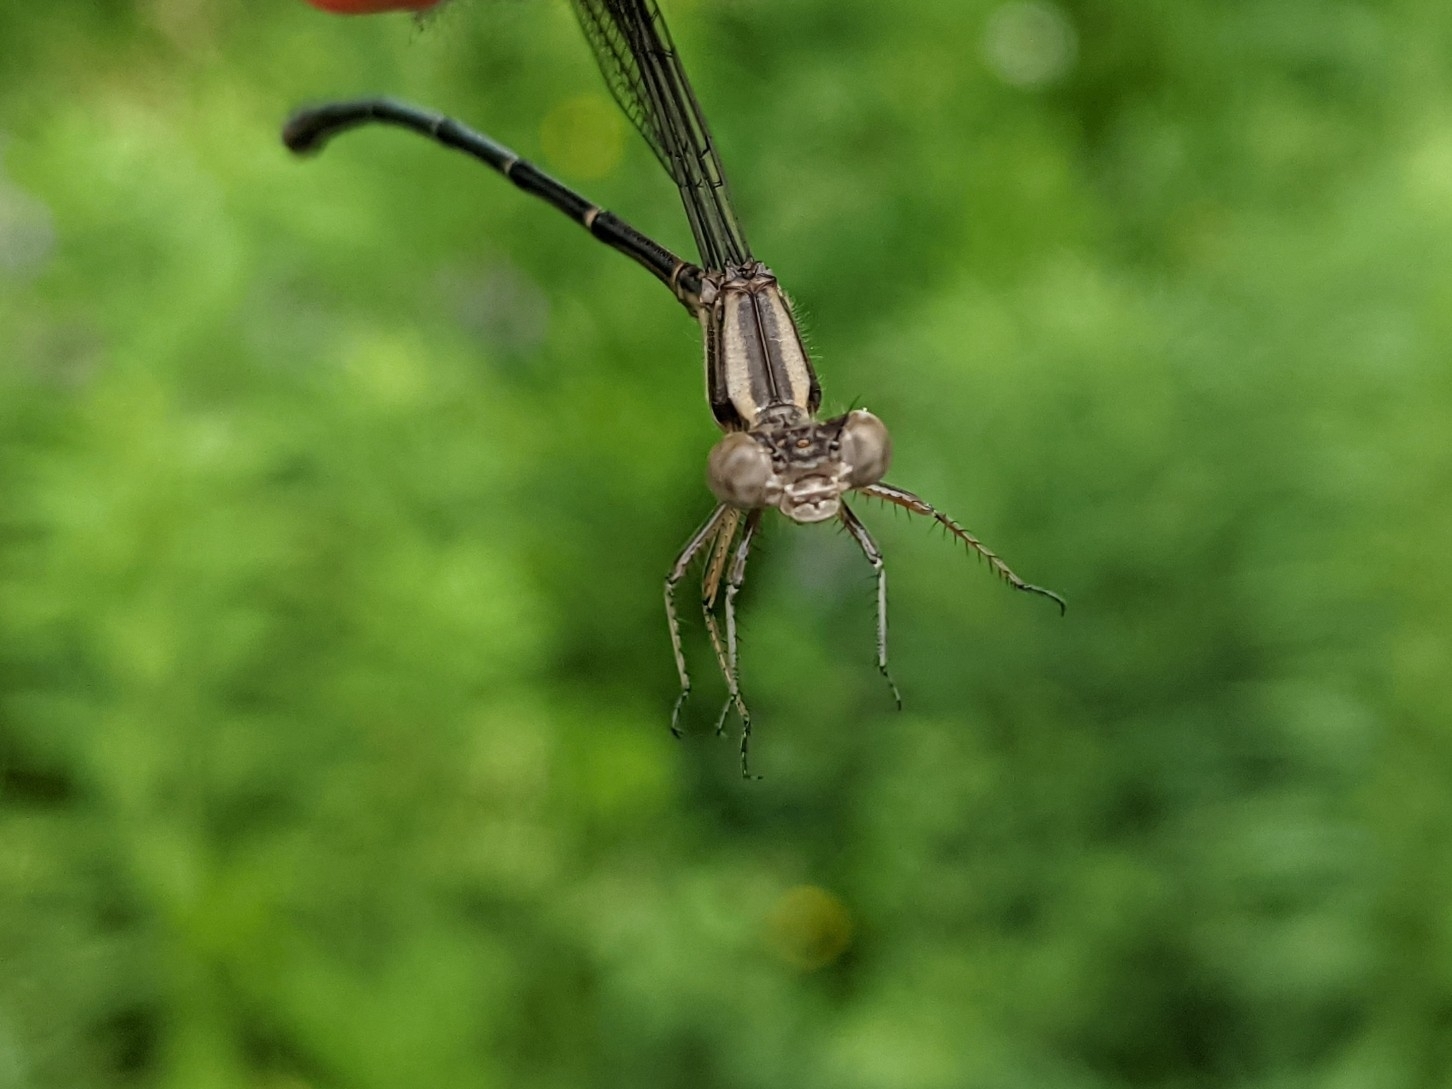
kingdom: Animalia
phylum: Arthropoda
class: Insecta
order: Odonata
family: Coenagrionidae
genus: Argia
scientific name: Argia moesta
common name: Powdered dancer
